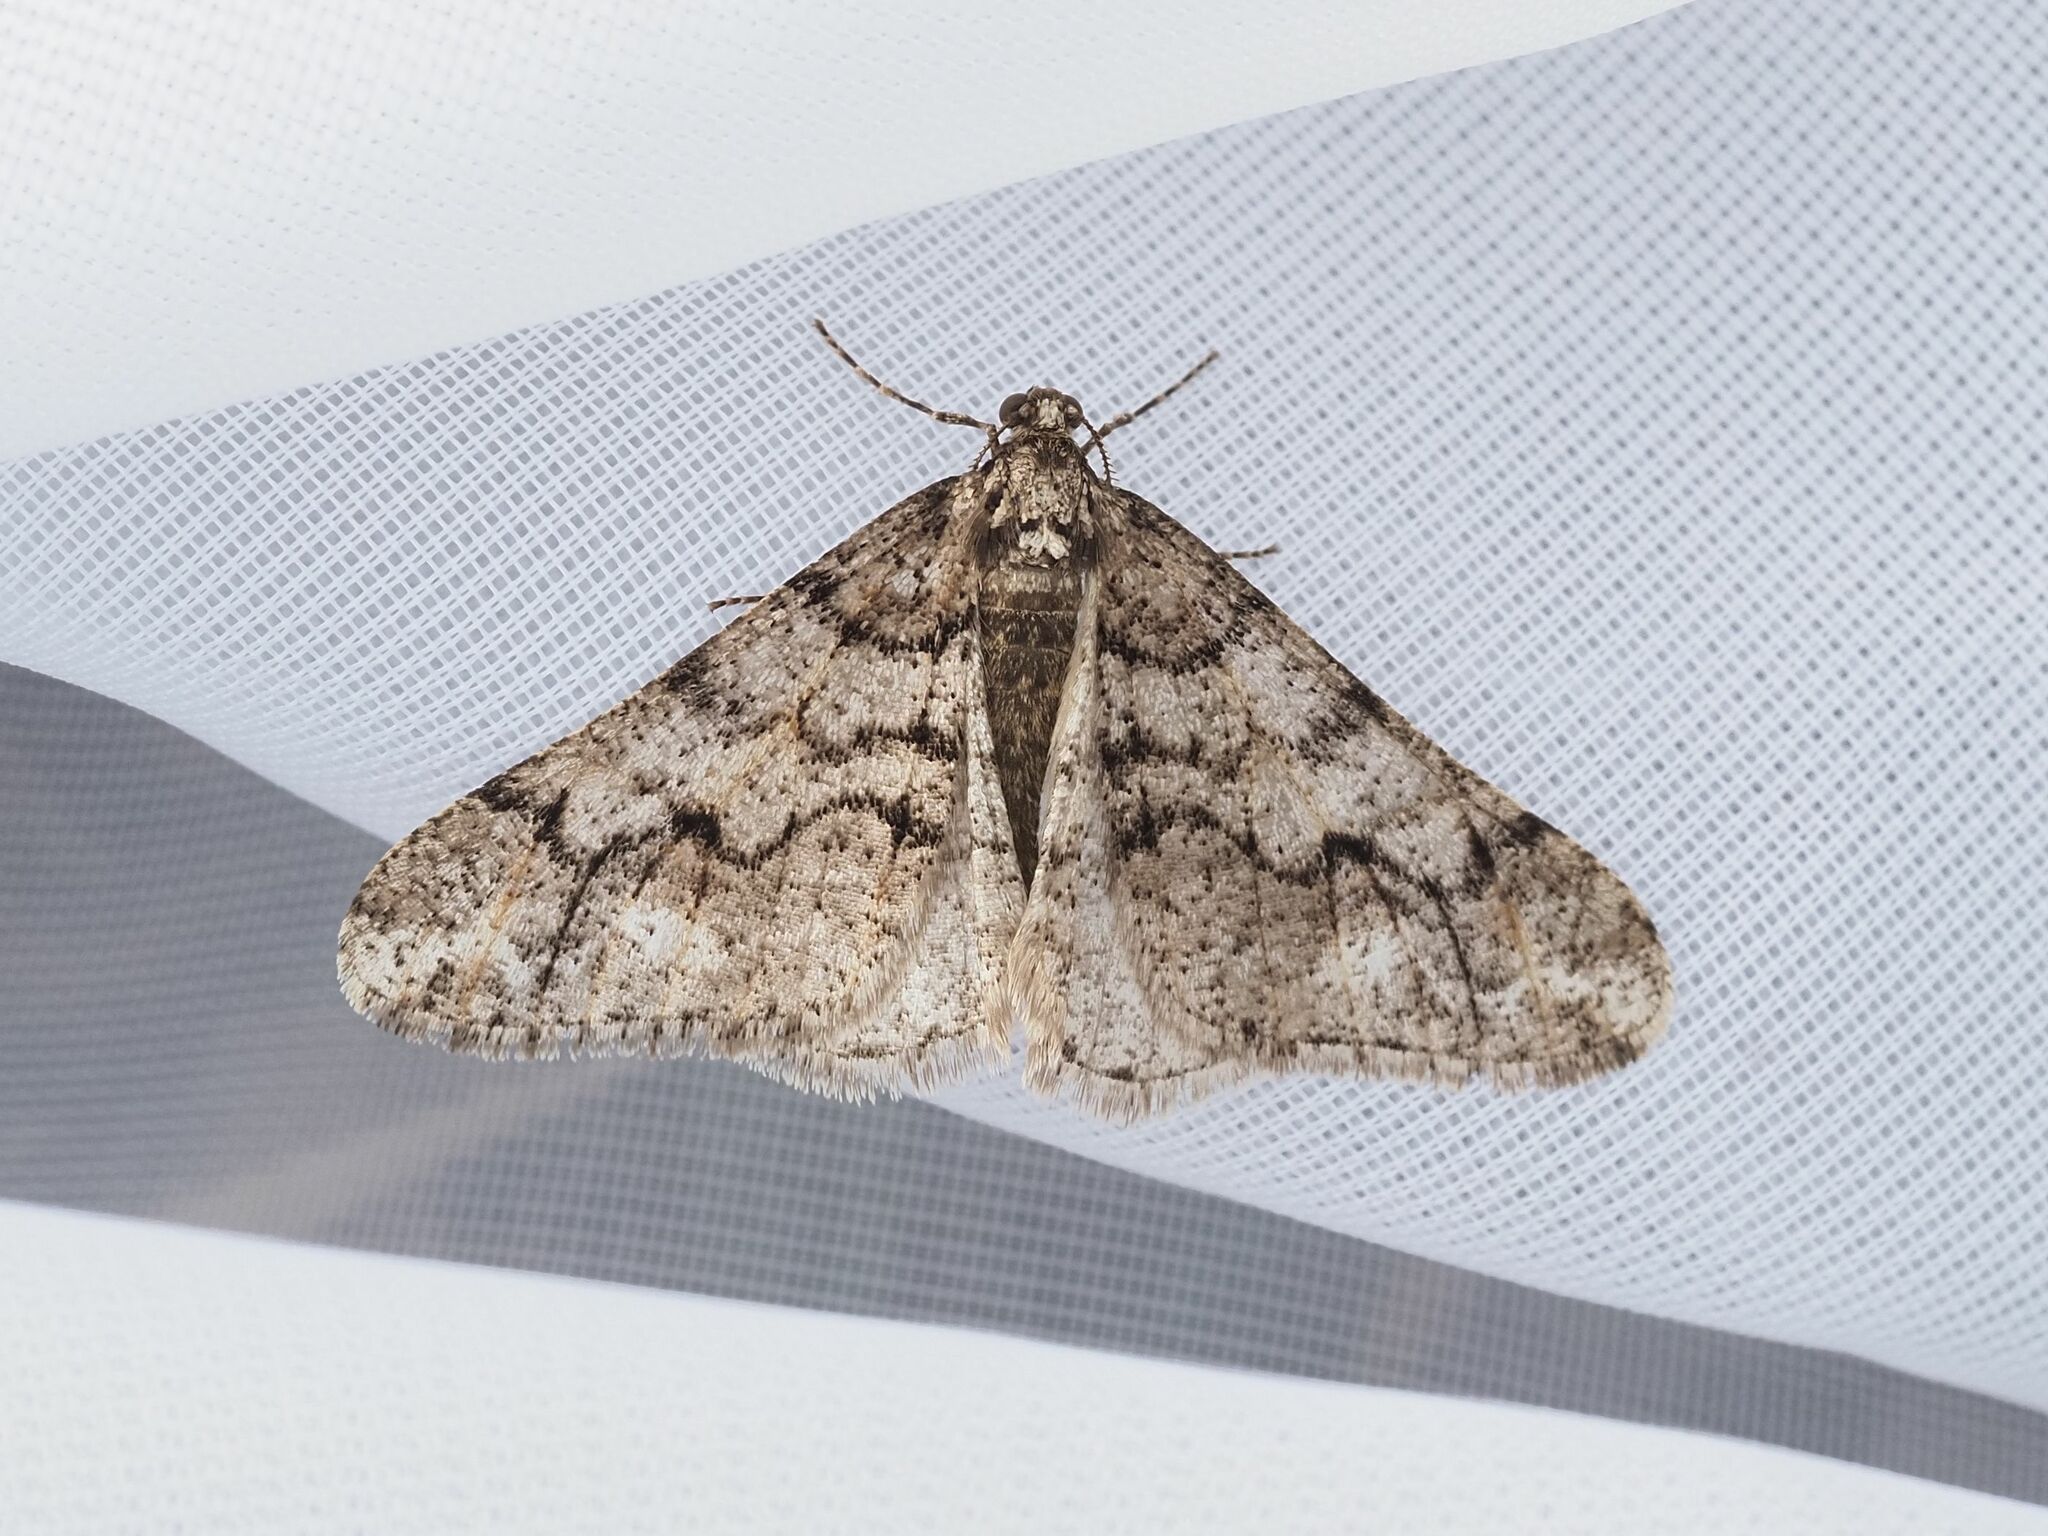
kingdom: Animalia
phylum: Arthropoda
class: Insecta
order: Lepidoptera
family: Geometridae
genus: Agriopis
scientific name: Agriopis leucophaearia
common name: Spring usher
